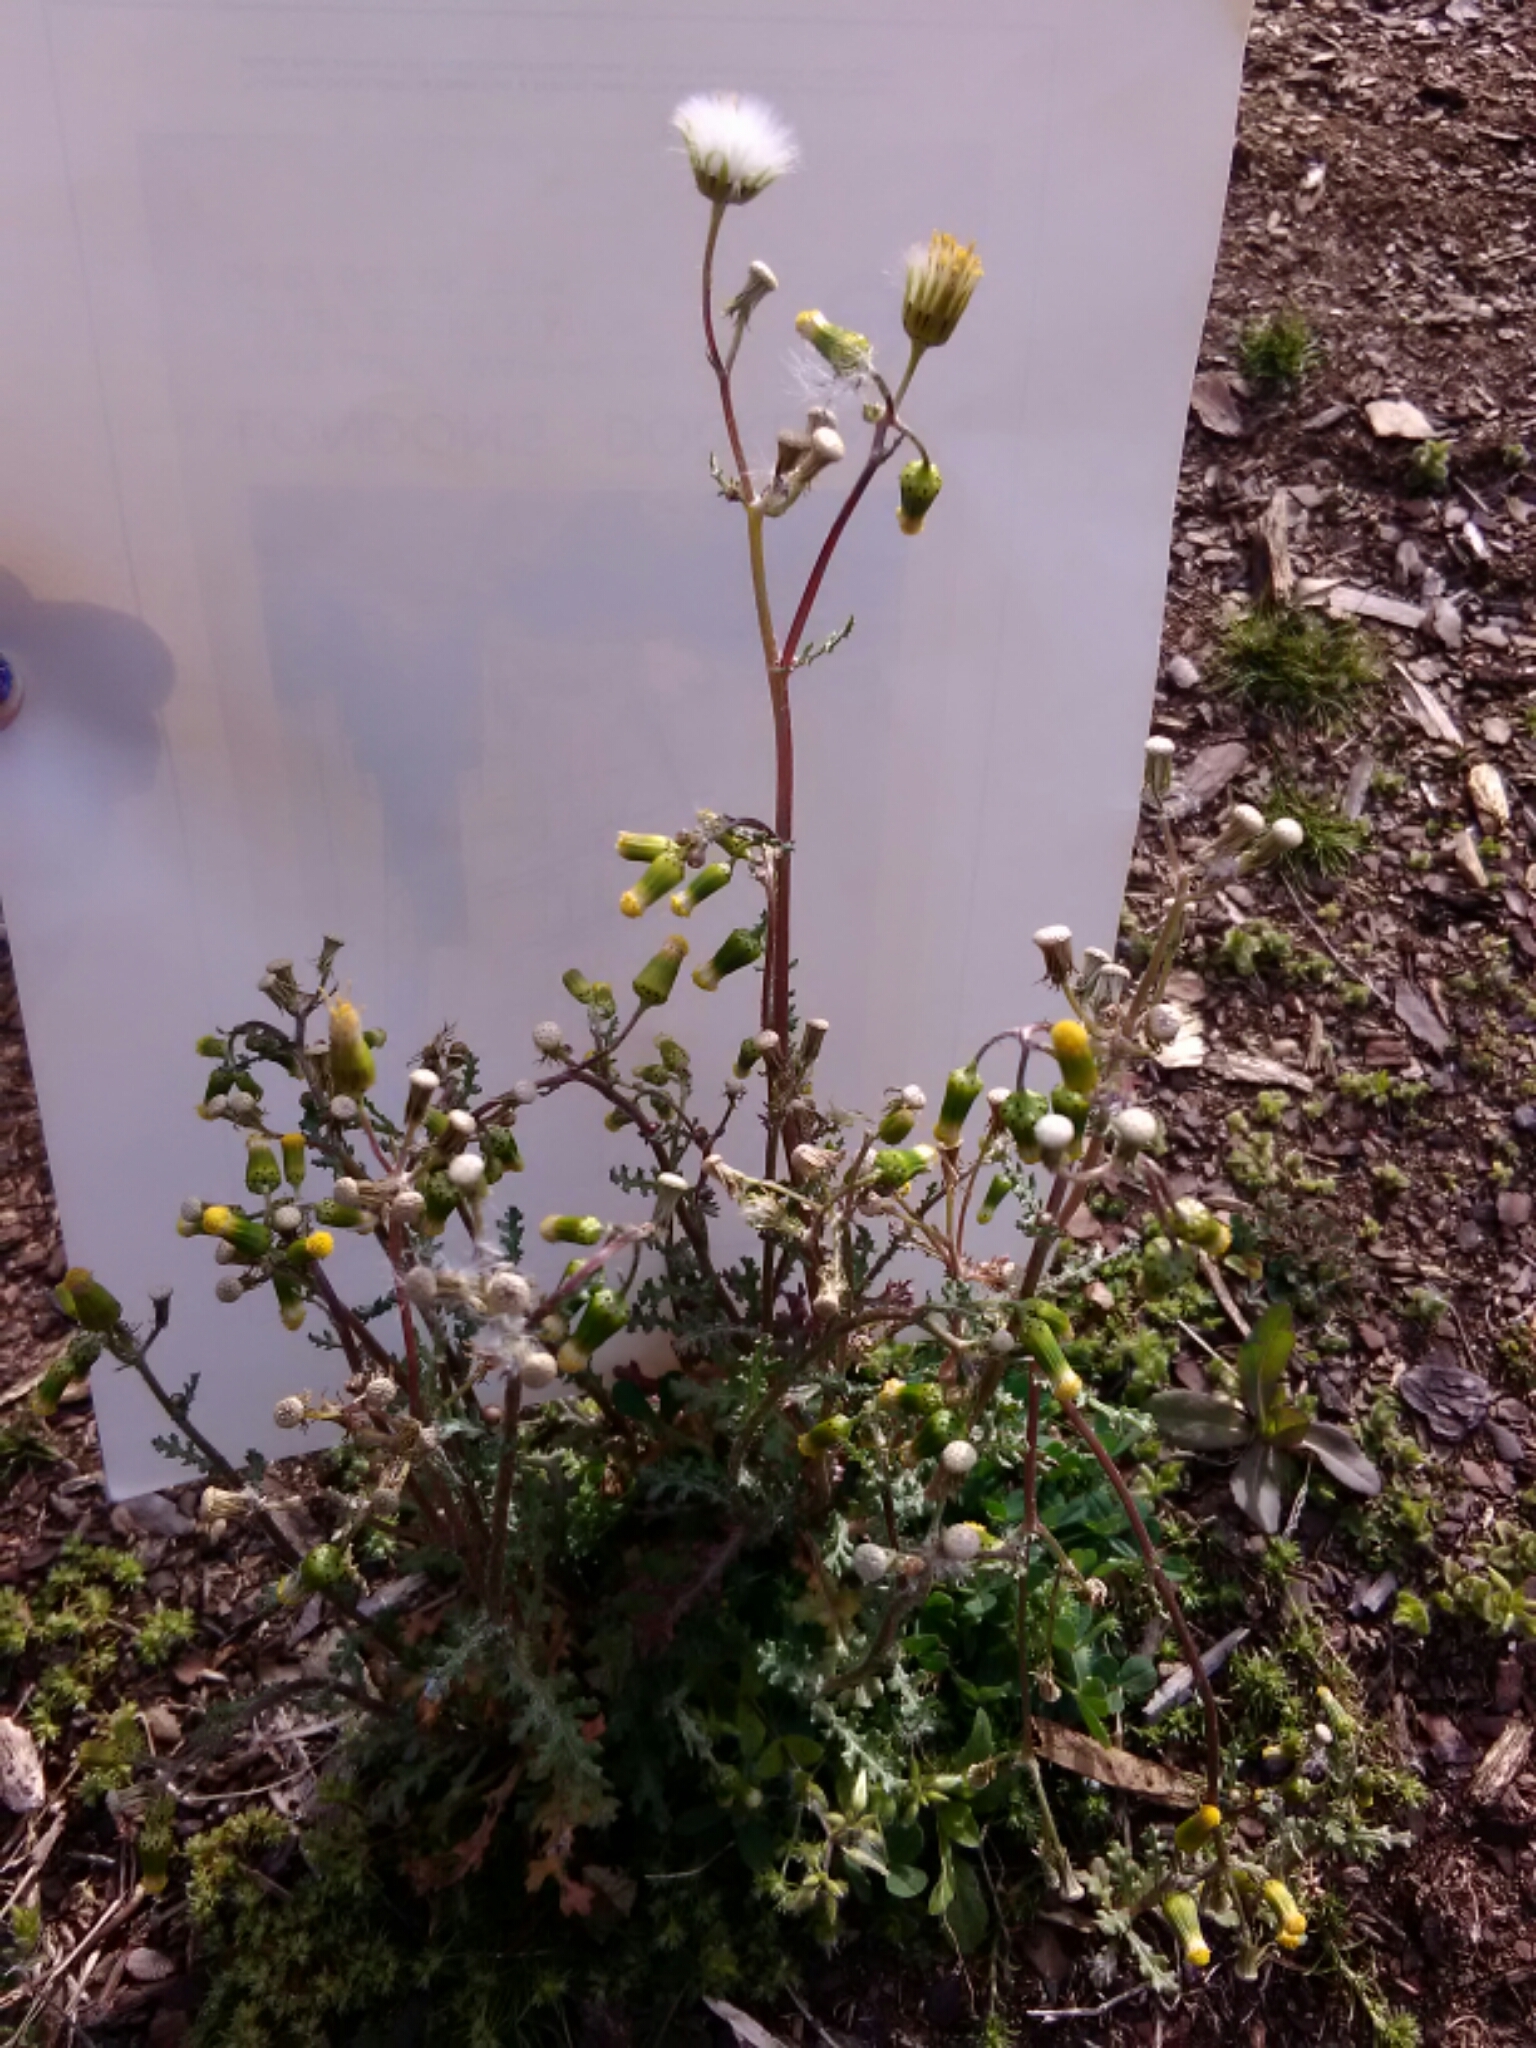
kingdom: Plantae
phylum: Tracheophyta
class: Magnoliopsida
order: Asterales
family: Asteraceae
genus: Senecio
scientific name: Senecio vulgaris
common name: Old-man-in-the-spring
